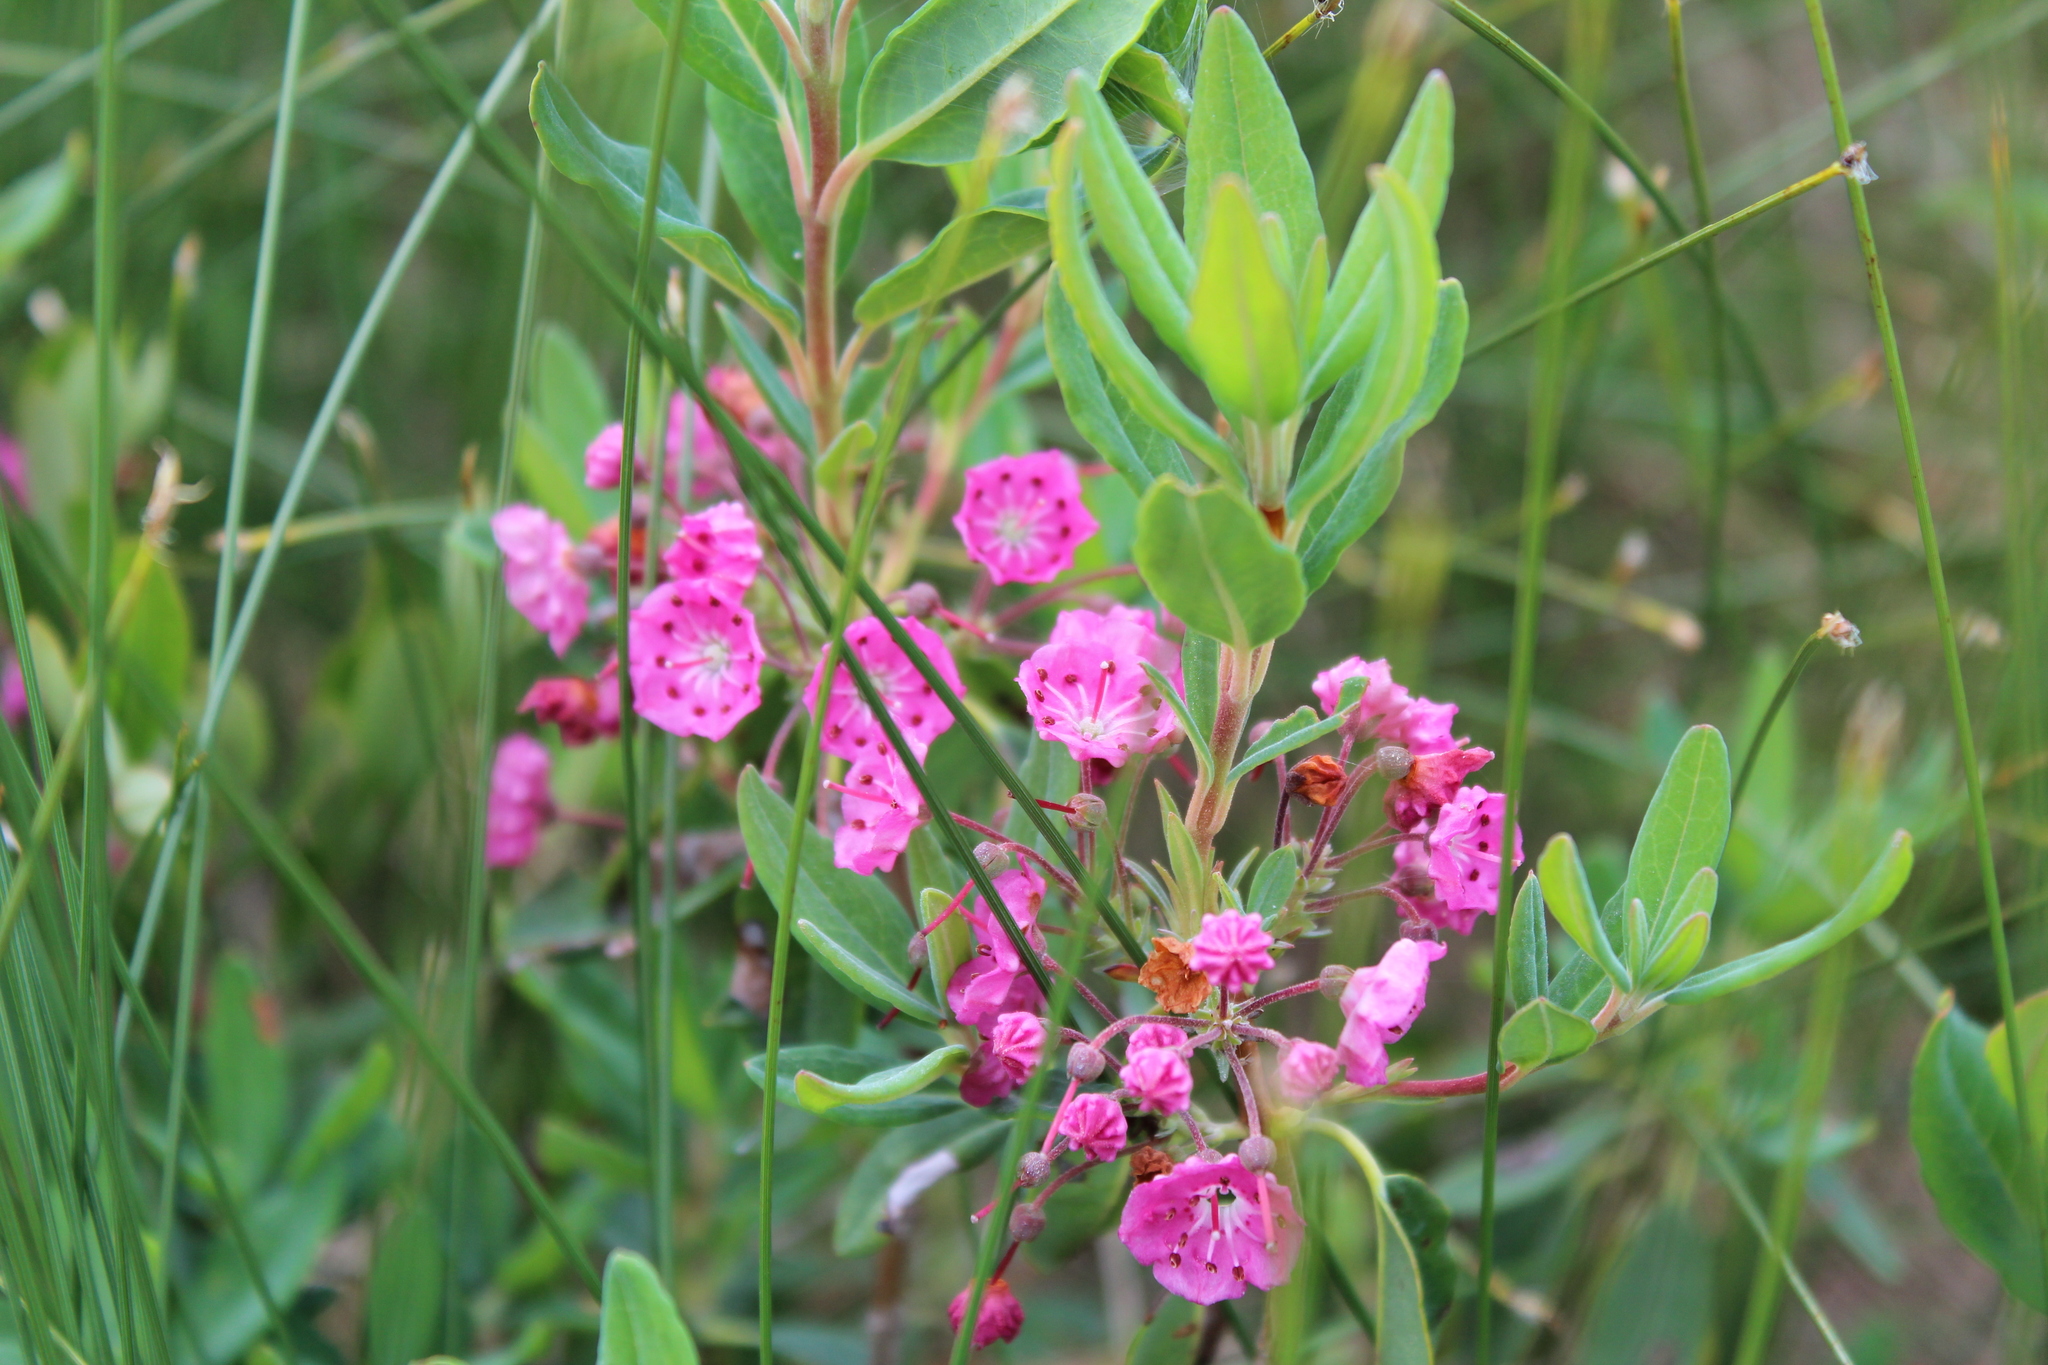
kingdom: Plantae
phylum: Tracheophyta
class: Magnoliopsida
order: Ericales
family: Ericaceae
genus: Kalmia
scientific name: Kalmia angustifolia
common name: Sheep-laurel
